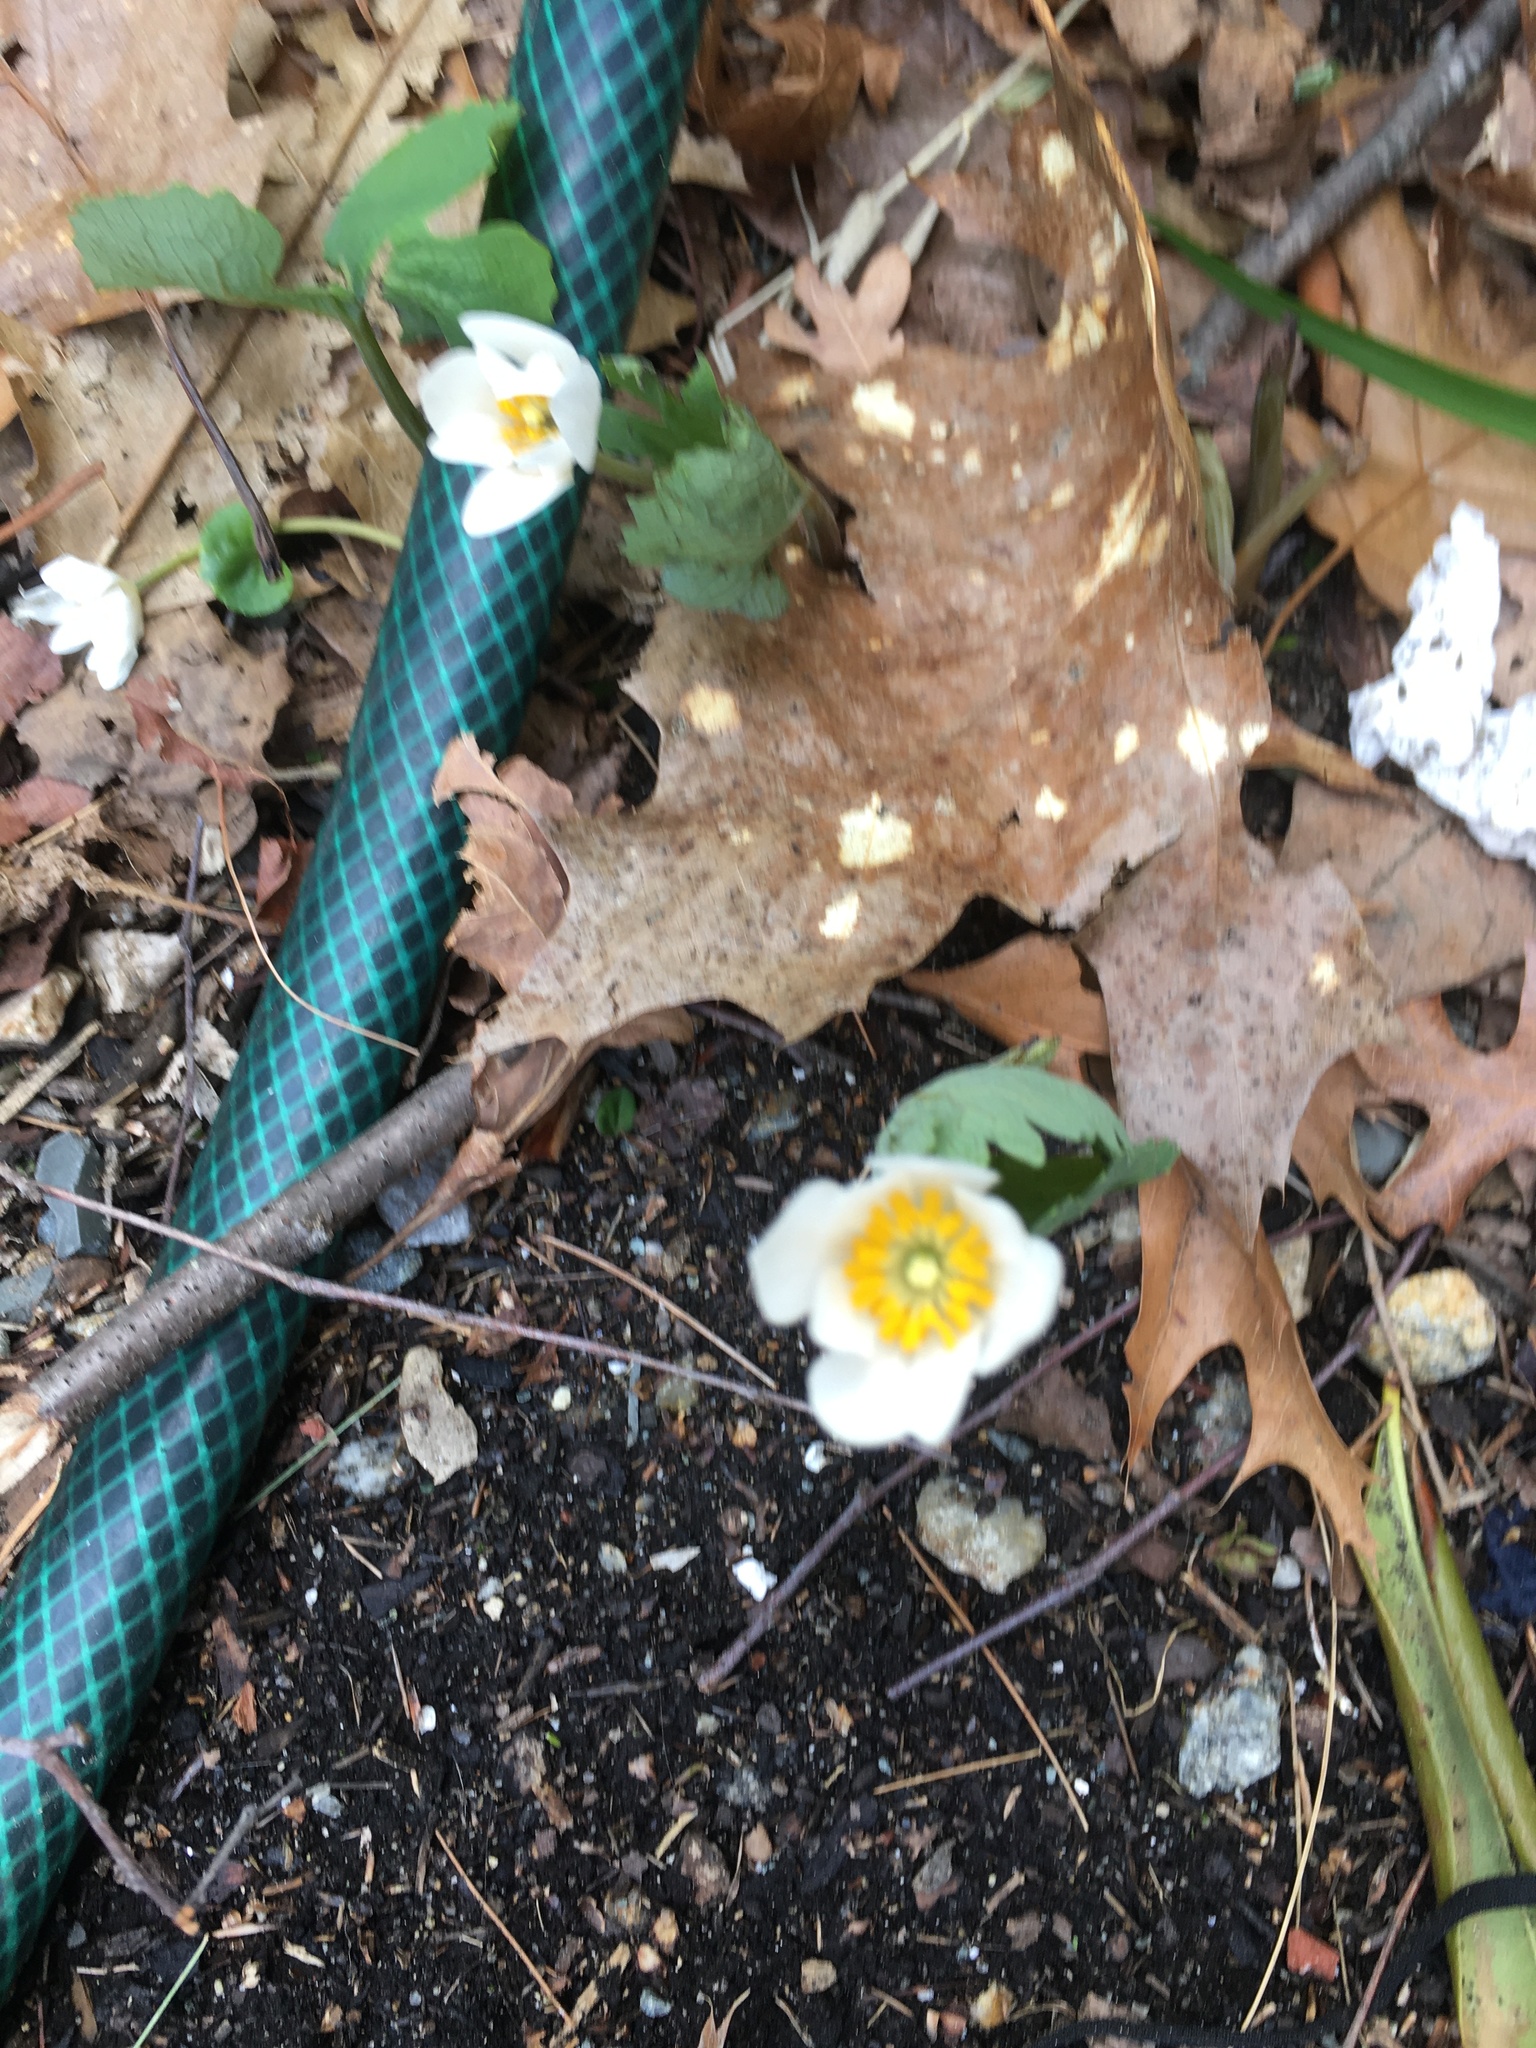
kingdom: Plantae
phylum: Tracheophyta
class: Magnoliopsida
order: Ranunculales
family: Papaveraceae
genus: Sanguinaria
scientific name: Sanguinaria canadensis
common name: Bloodroot
